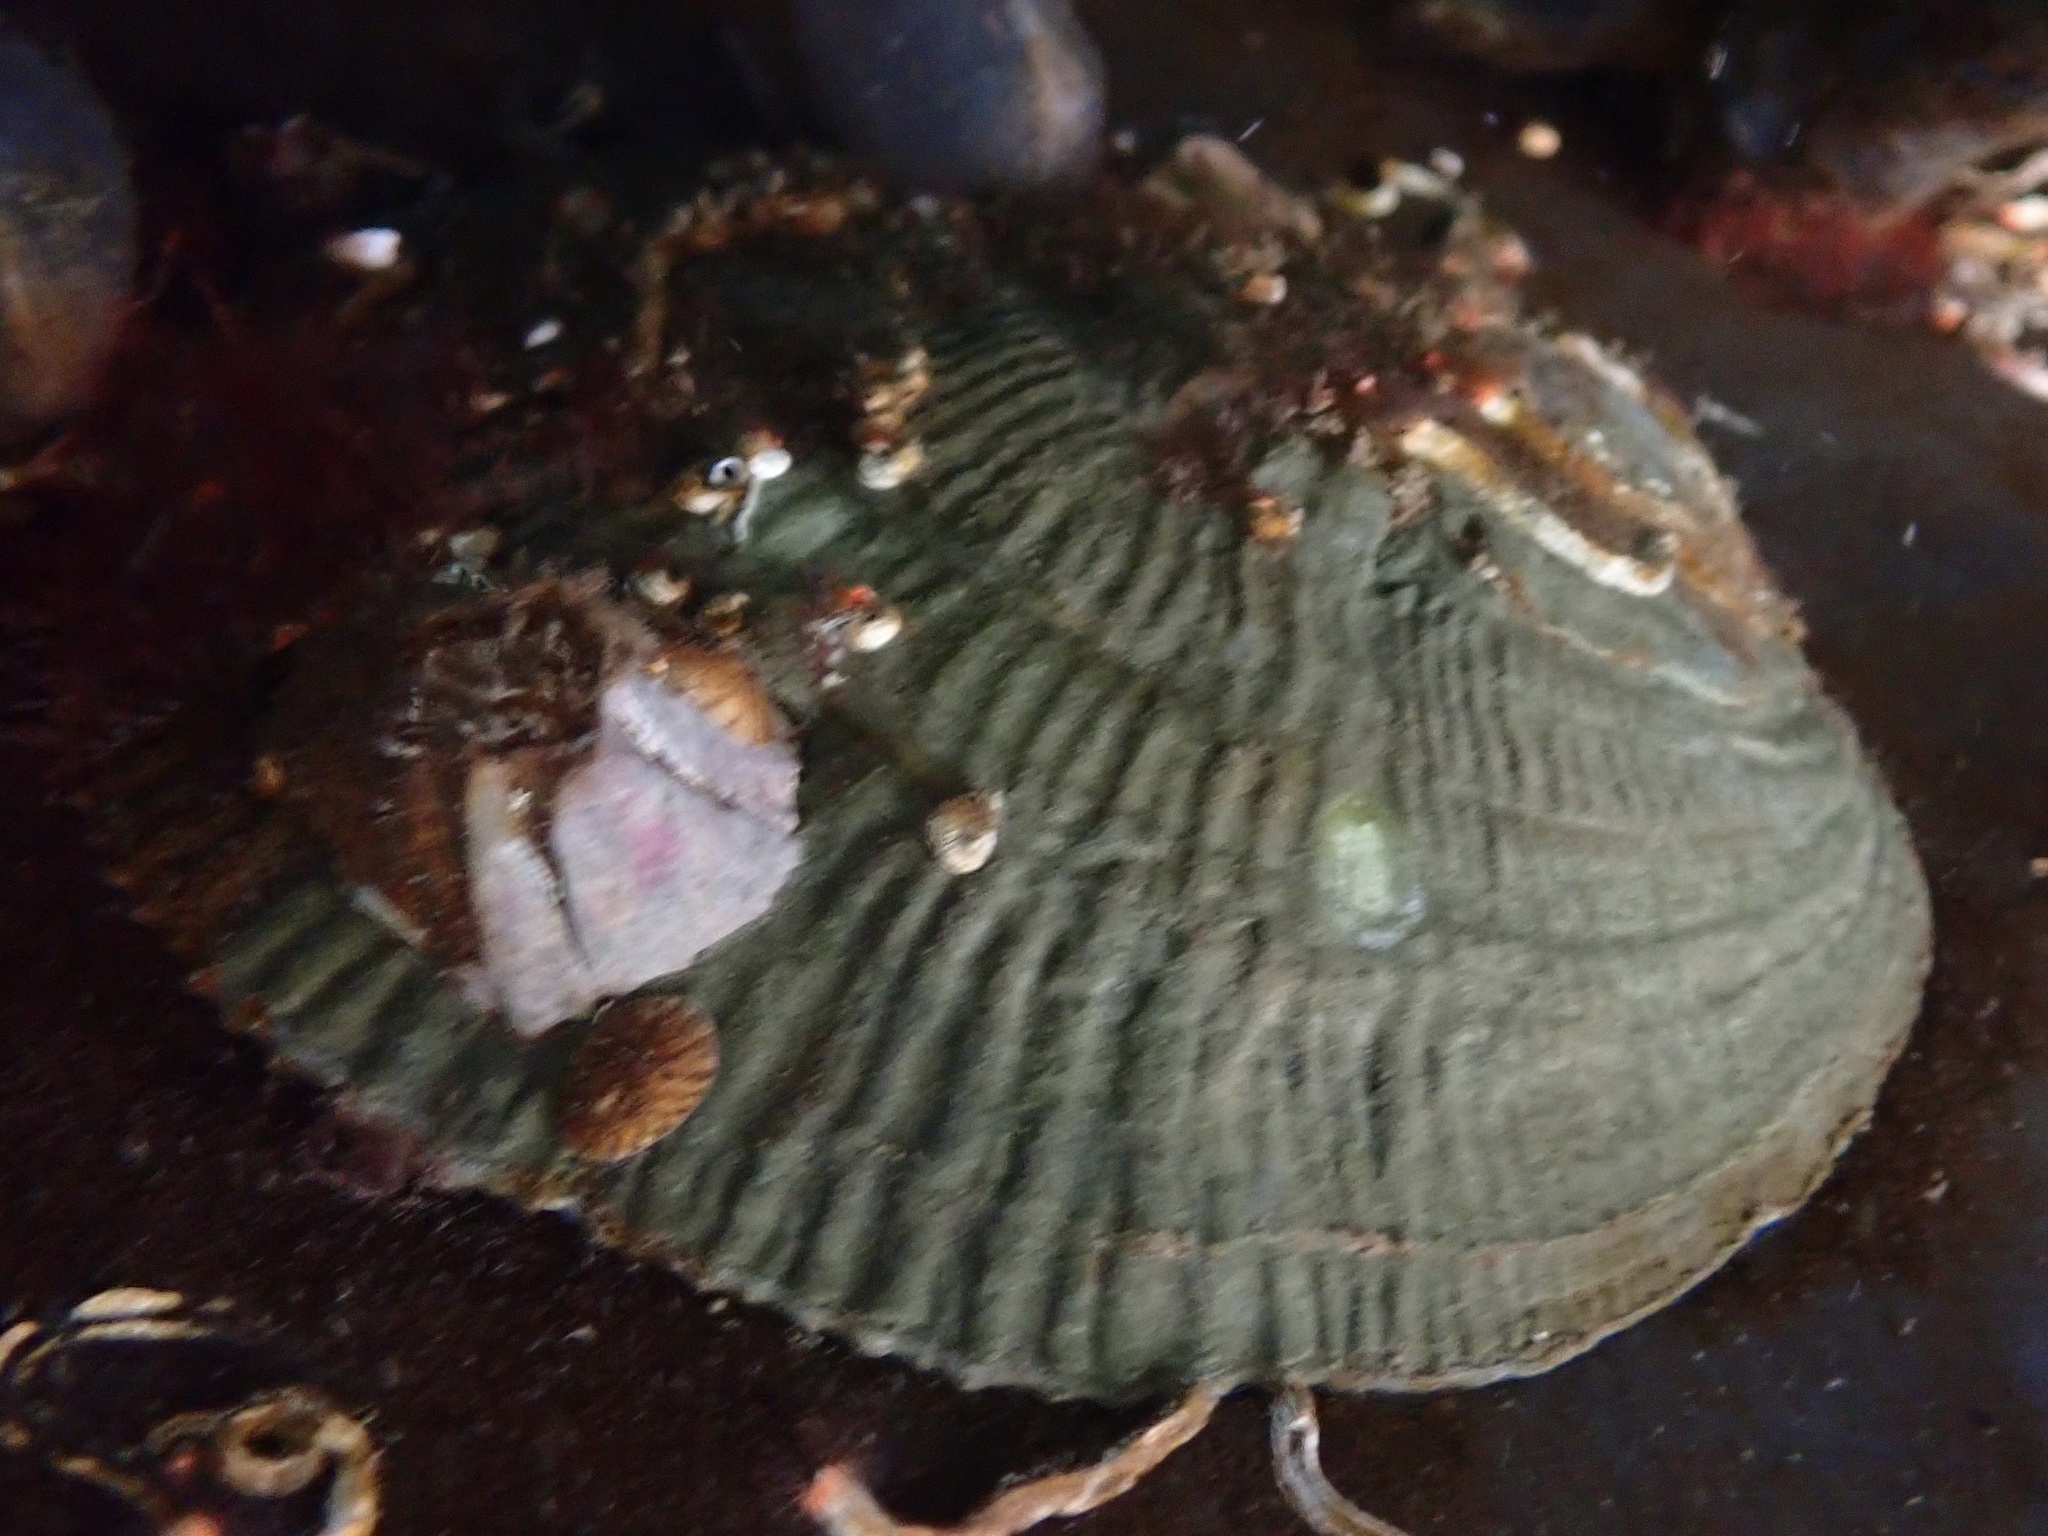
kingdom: Animalia
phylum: Mollusca
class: Bivalvia
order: Pectinida
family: Anomiidae
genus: Pododesmus
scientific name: Pododesmus macrochisma
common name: Alaska jingle
